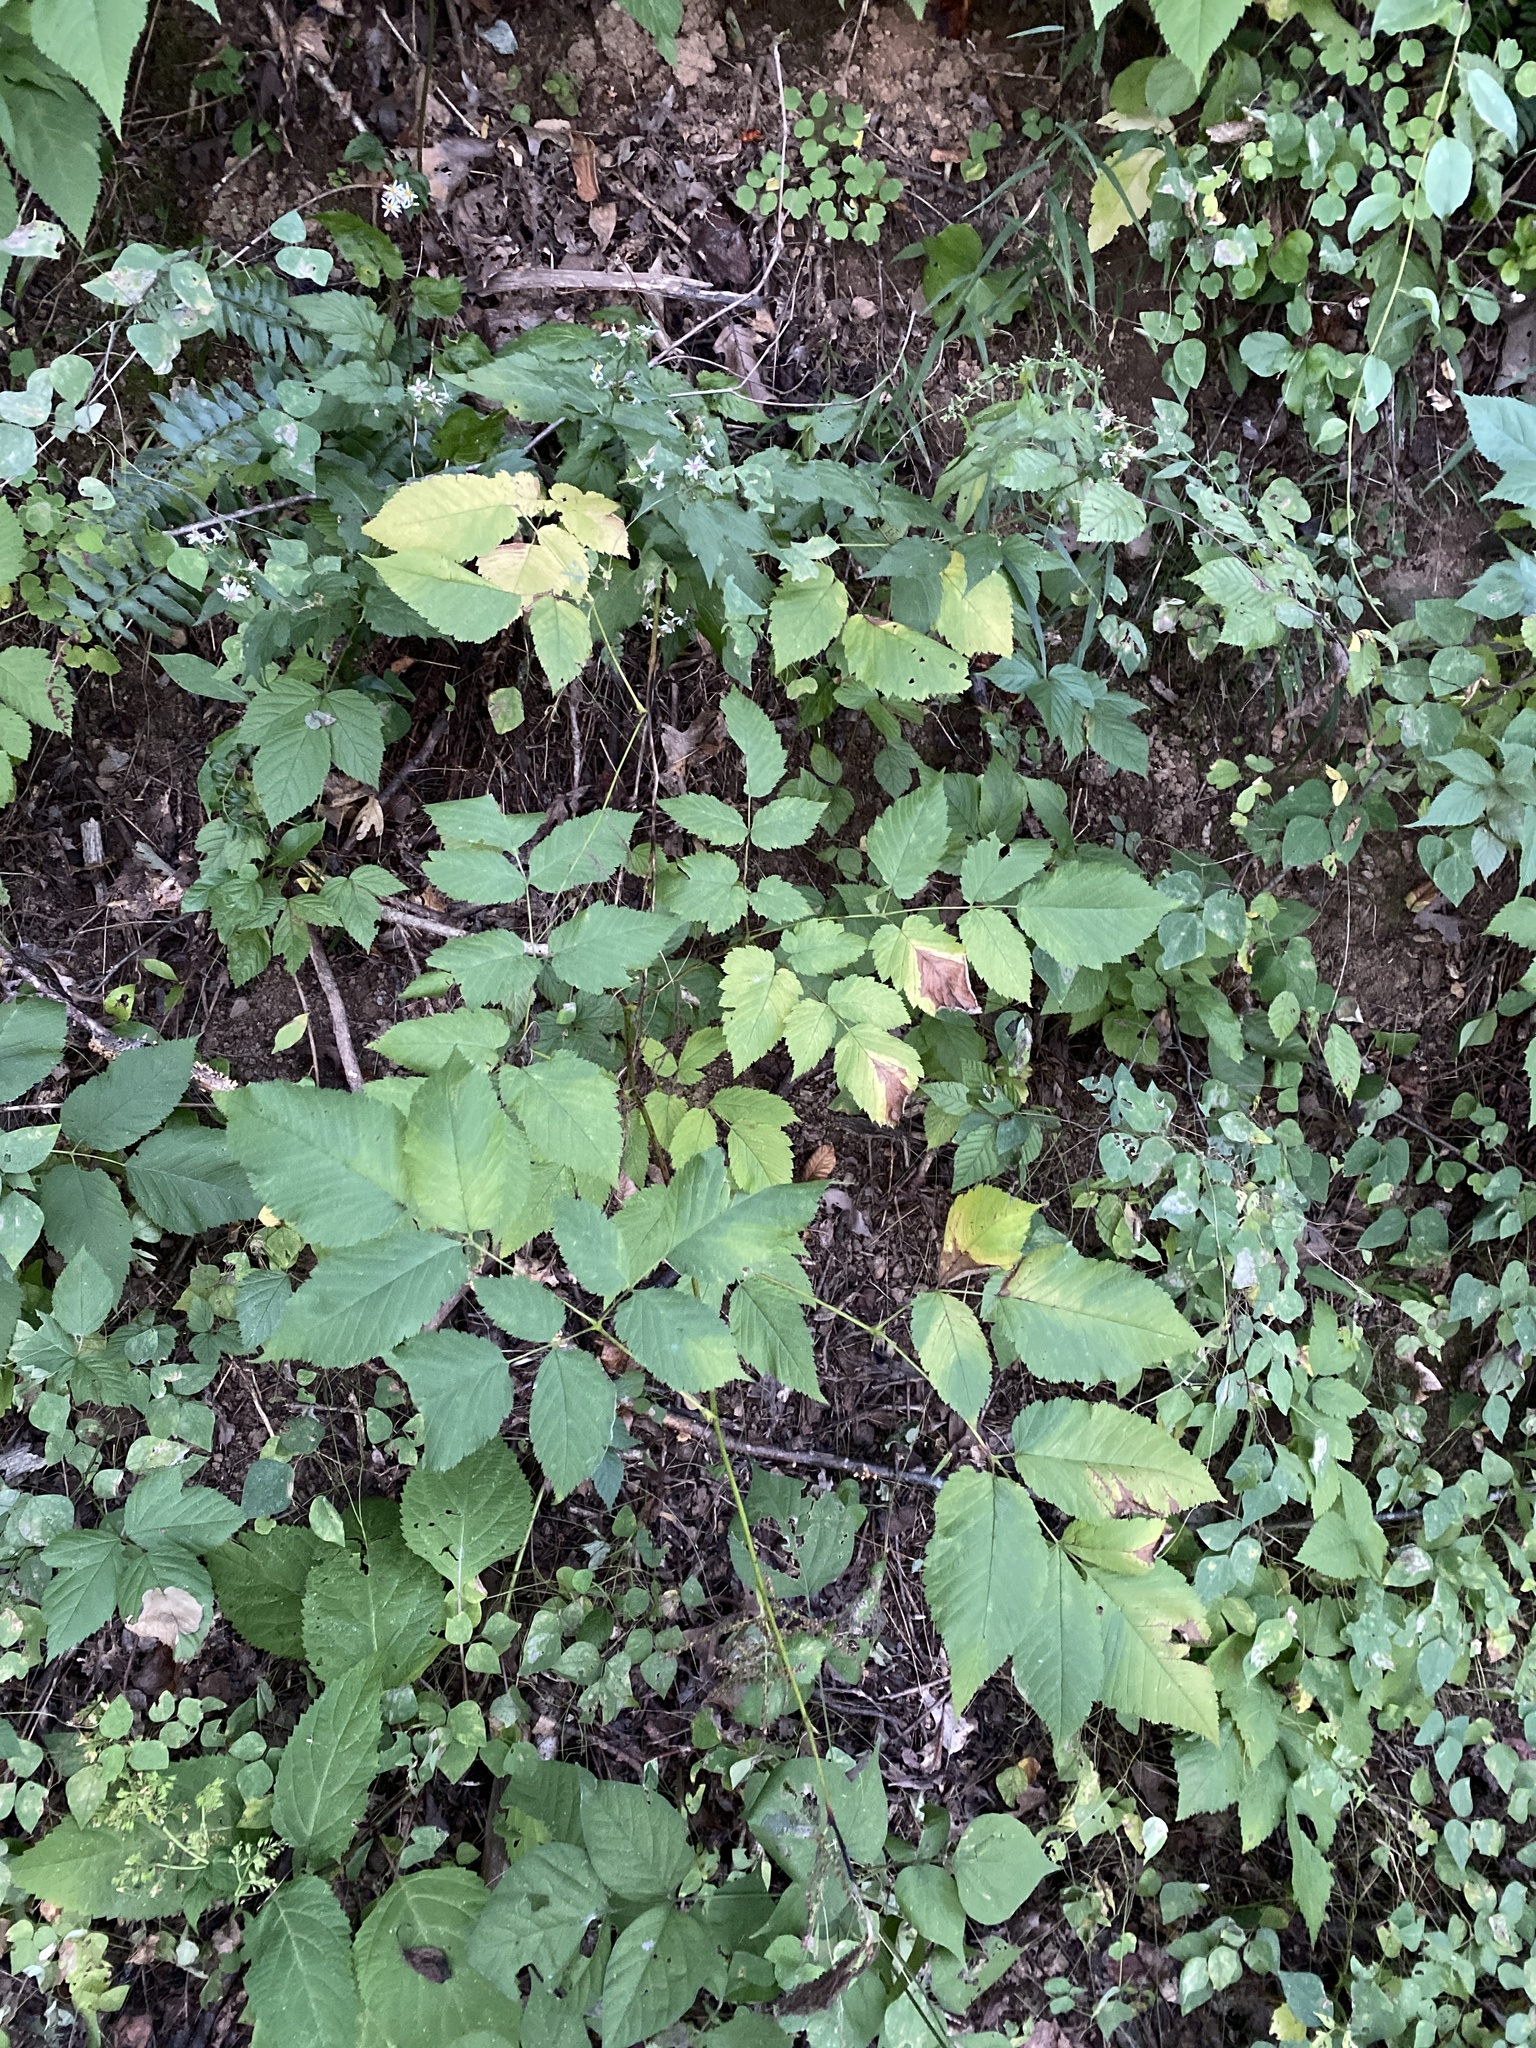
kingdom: Plantae
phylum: Tracheophyta
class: Magnoliopsida
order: Rosales
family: Rosaceae
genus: Aruncus
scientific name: Aruncus dioicus
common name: Buck's-beard
